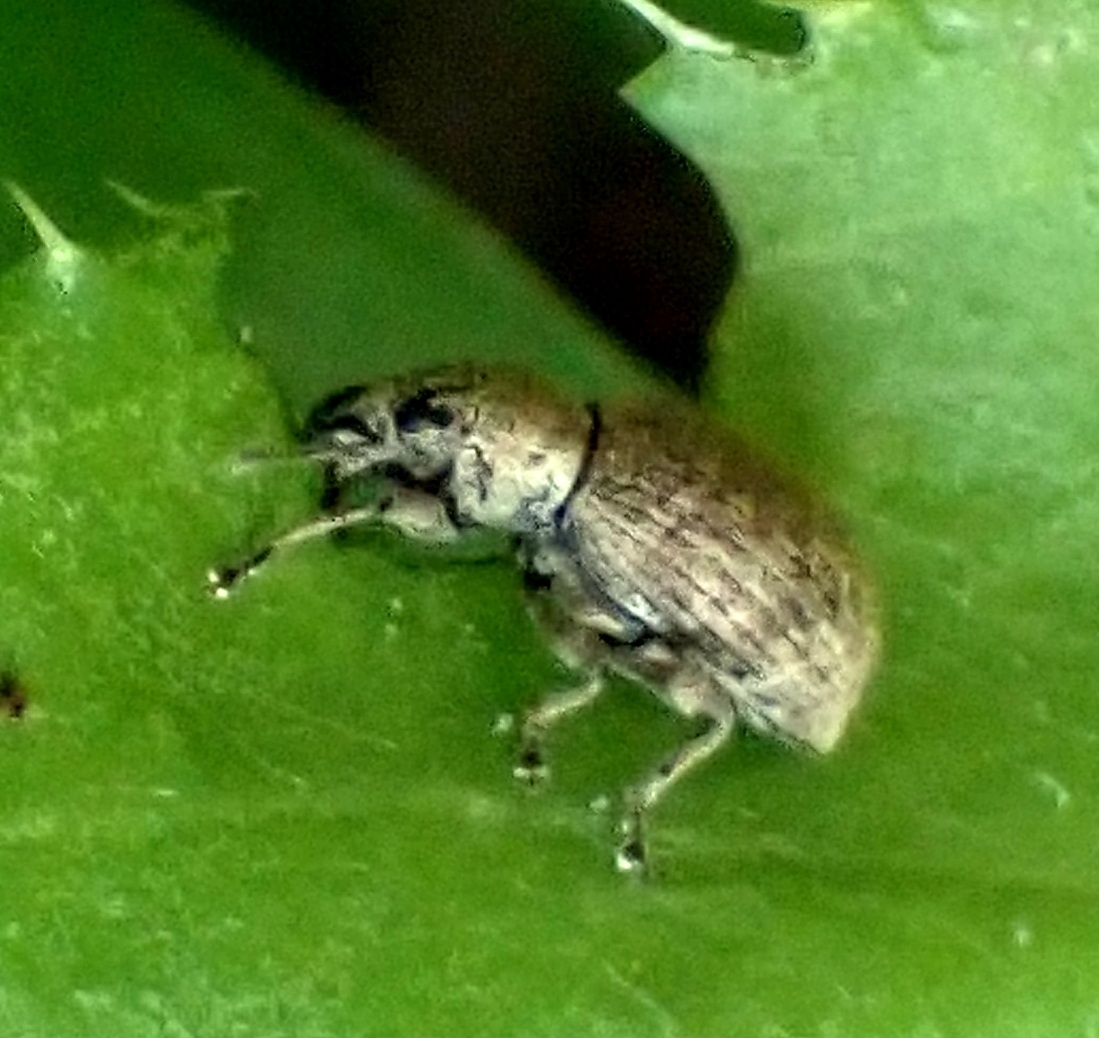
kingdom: Animalia
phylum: Arthropoda
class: Insecta
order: Coleoptera
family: Curculionidae
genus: Sciaphilus
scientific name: Sciaphilus asperatus
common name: Weevil
